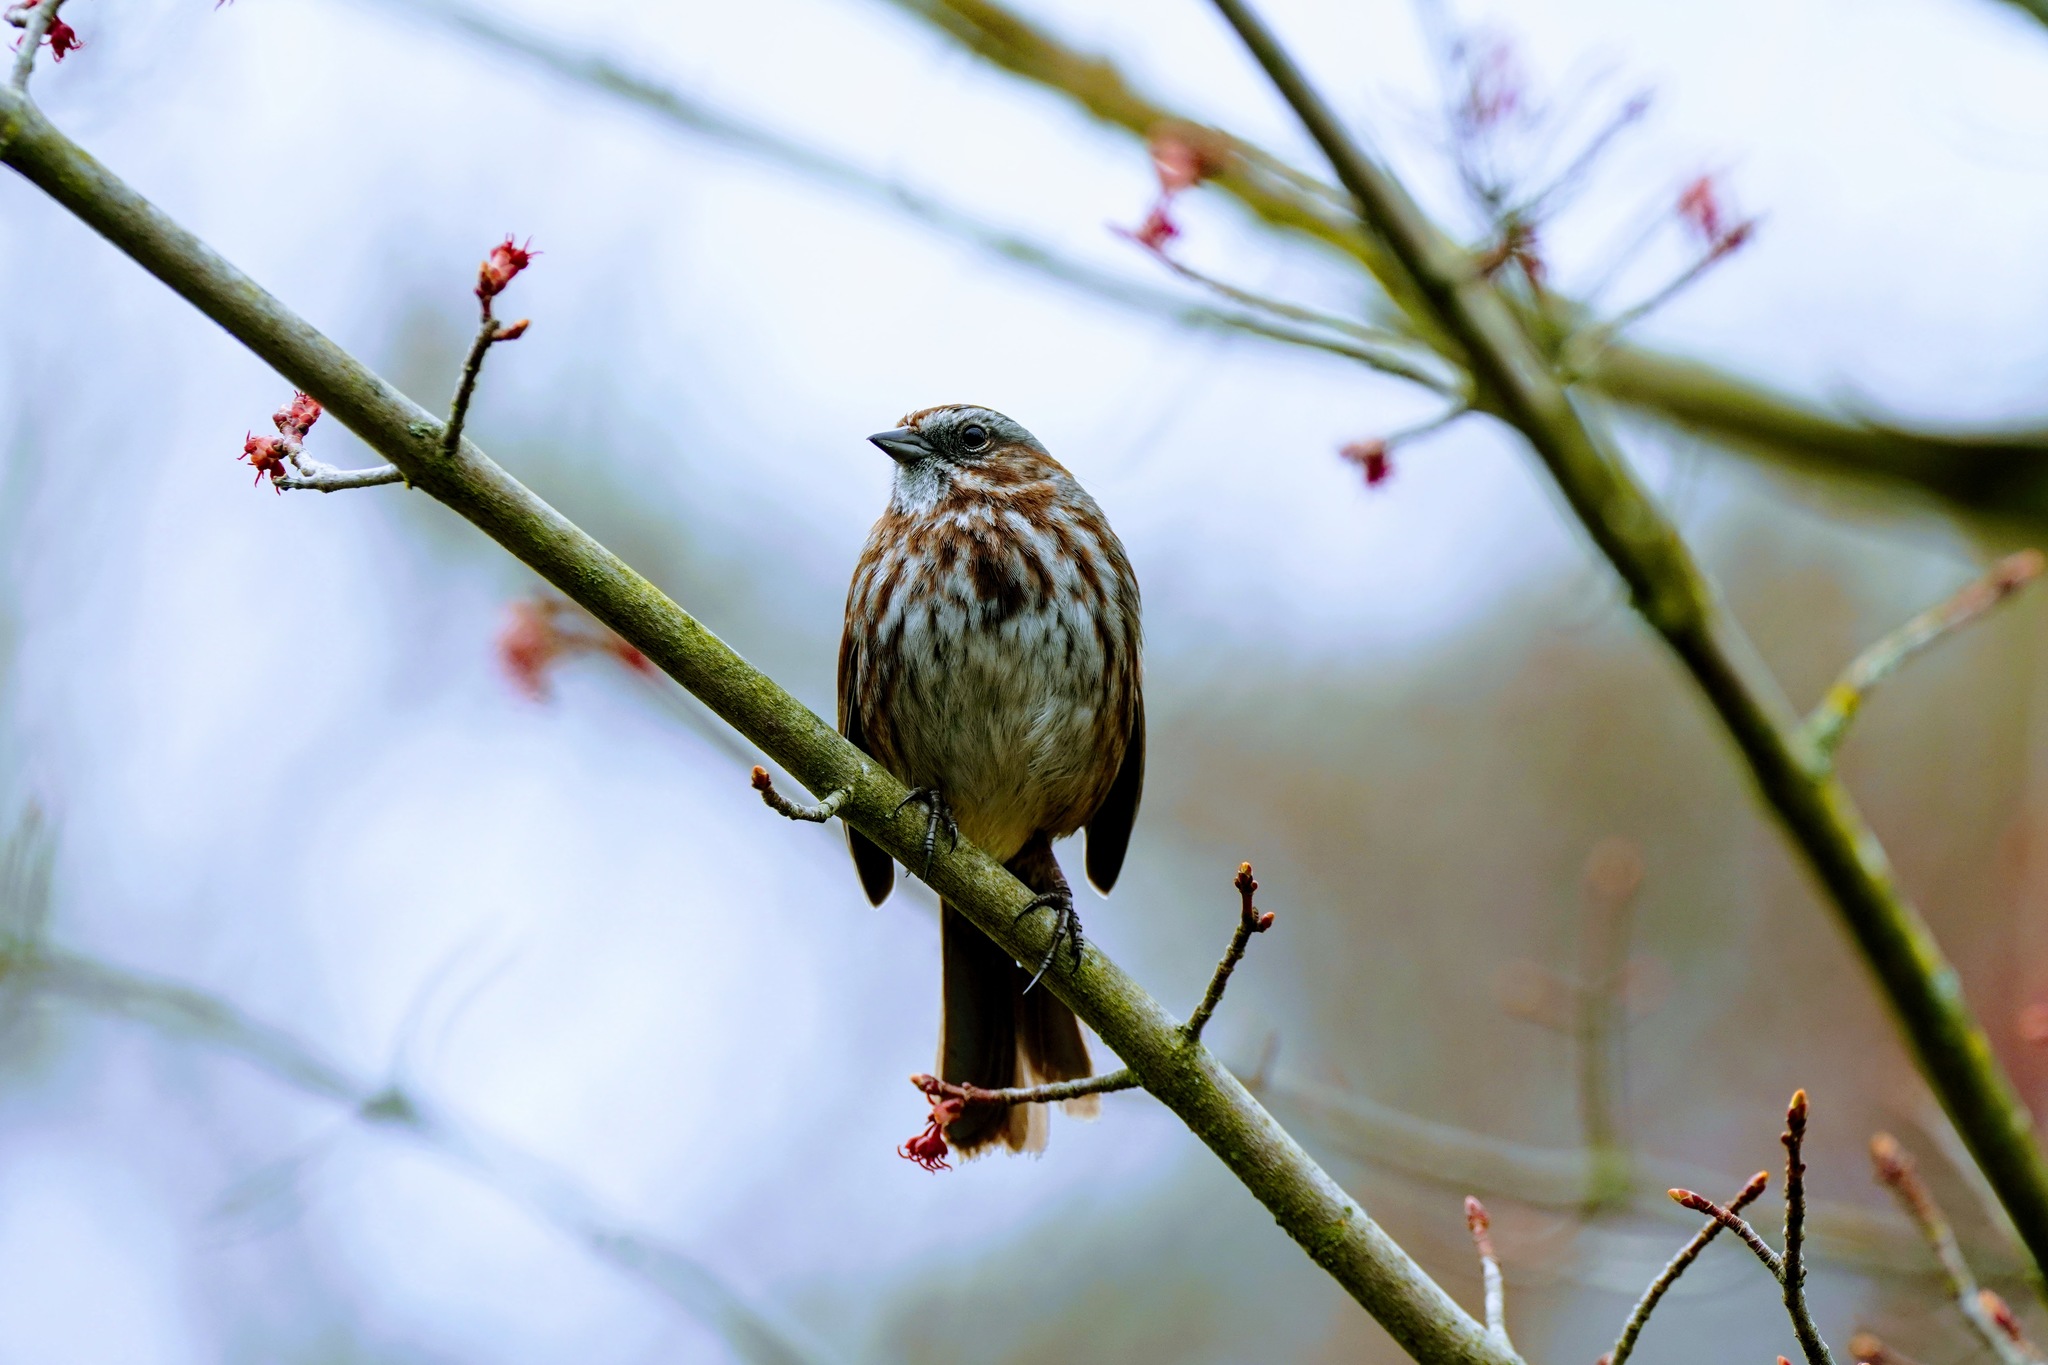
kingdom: Animalia
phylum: Chordata
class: Aves
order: Passeriformes
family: Passerellidae
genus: Melospiza
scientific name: Melospiza melodia
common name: Song sparrow
